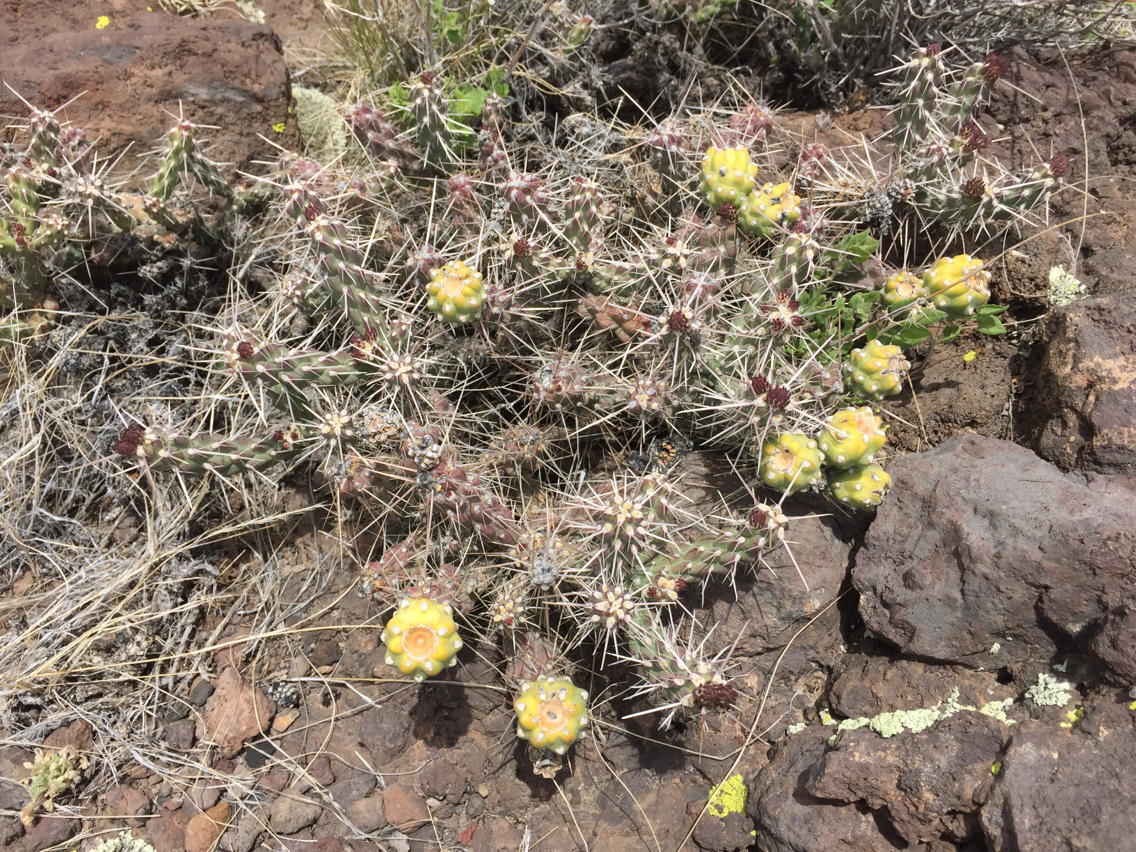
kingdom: Plantae
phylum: Tracheophyta
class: Magnoliopsida
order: Caryophyllales
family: Cactaceae
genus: Cylindropuntia
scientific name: Cylindropuntia whipplei
